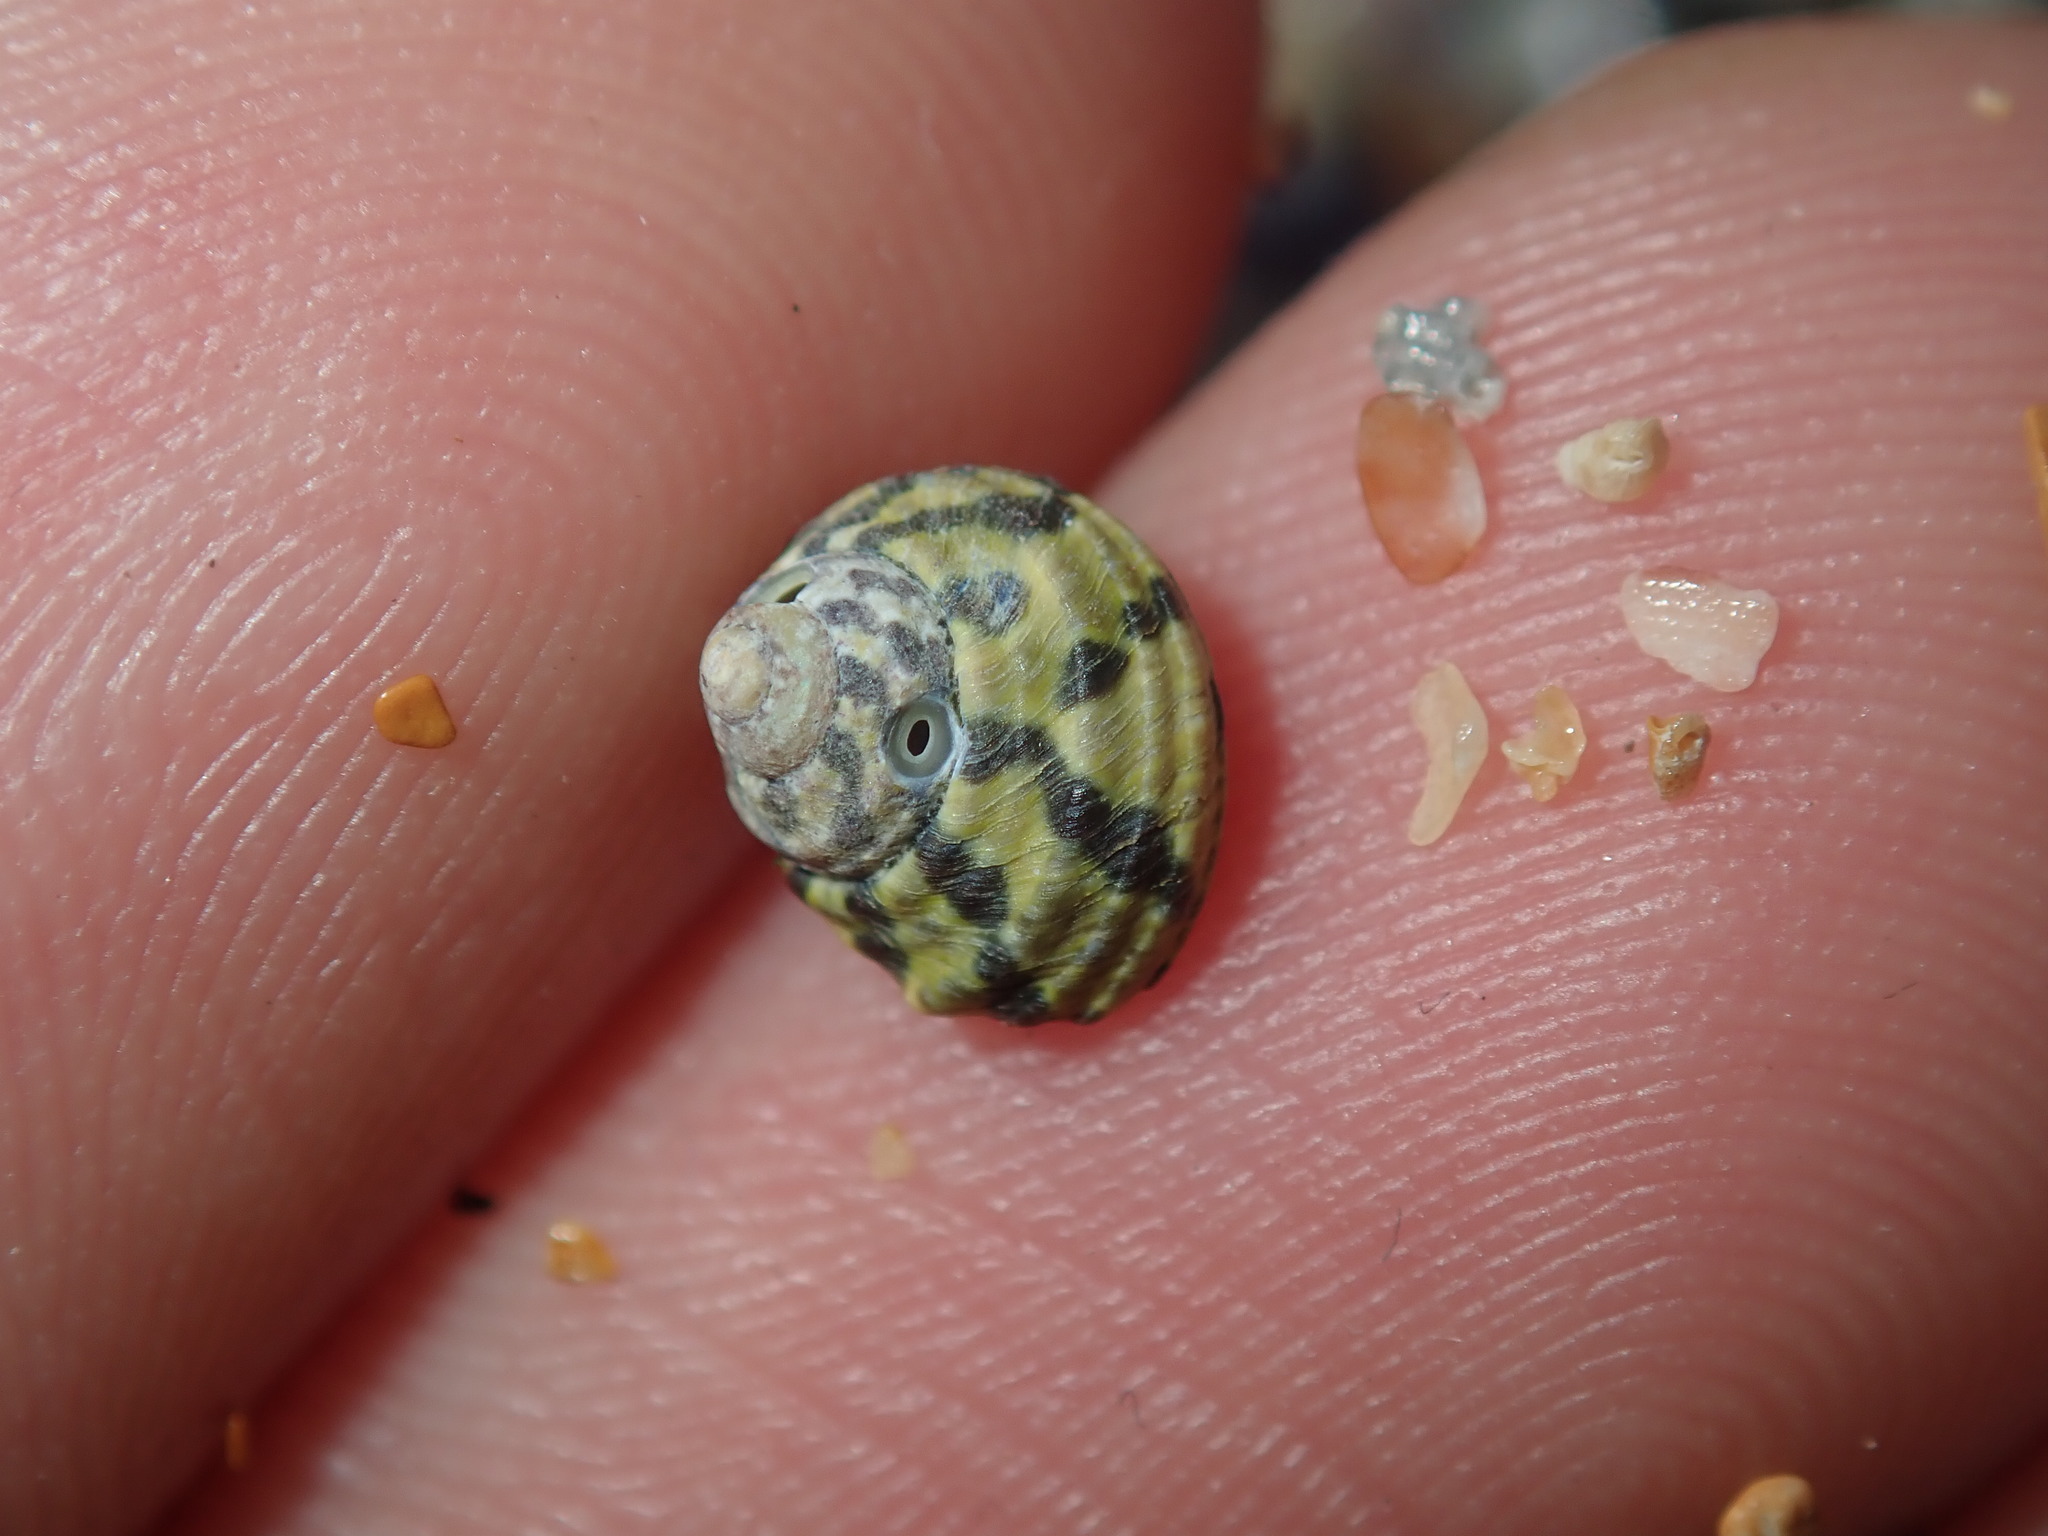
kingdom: Animalia
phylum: Mollusca
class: Gastropoda
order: Trochida
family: Trochidae
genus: Austrocochlea
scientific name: Austrocochlea porcata
